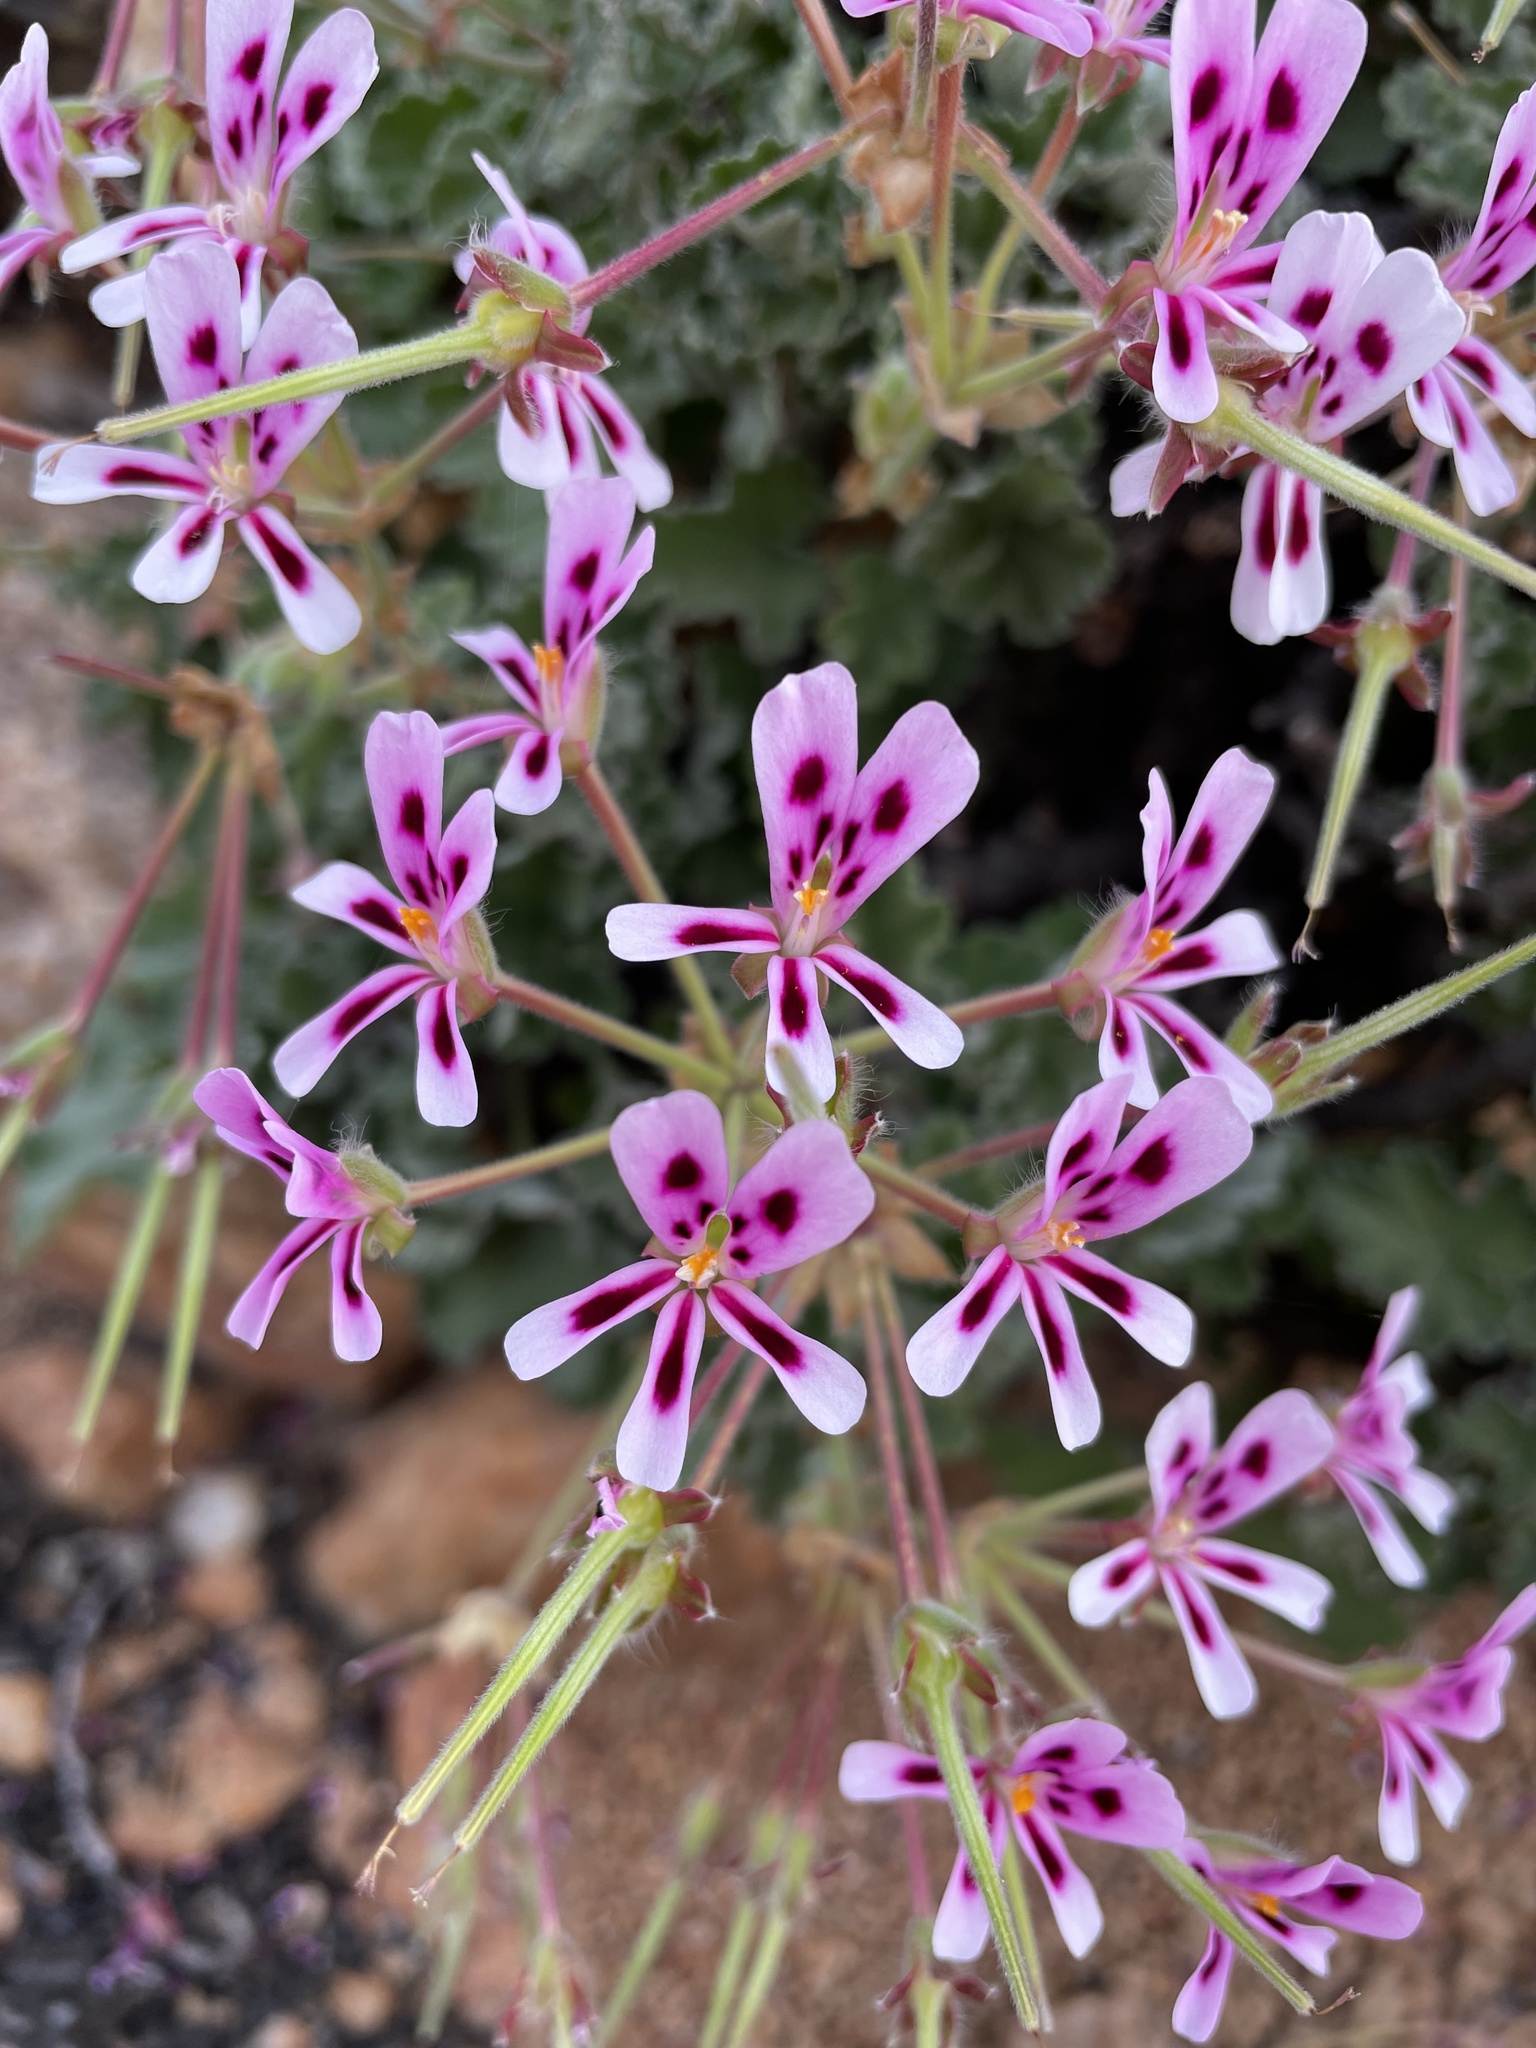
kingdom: Plantae
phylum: Tracheophyta
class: Magnoliopsida
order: Geraniales
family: Geraniaceae
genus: Pelargonium
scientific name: Pelargonium echinatum
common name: Cactus geranium
